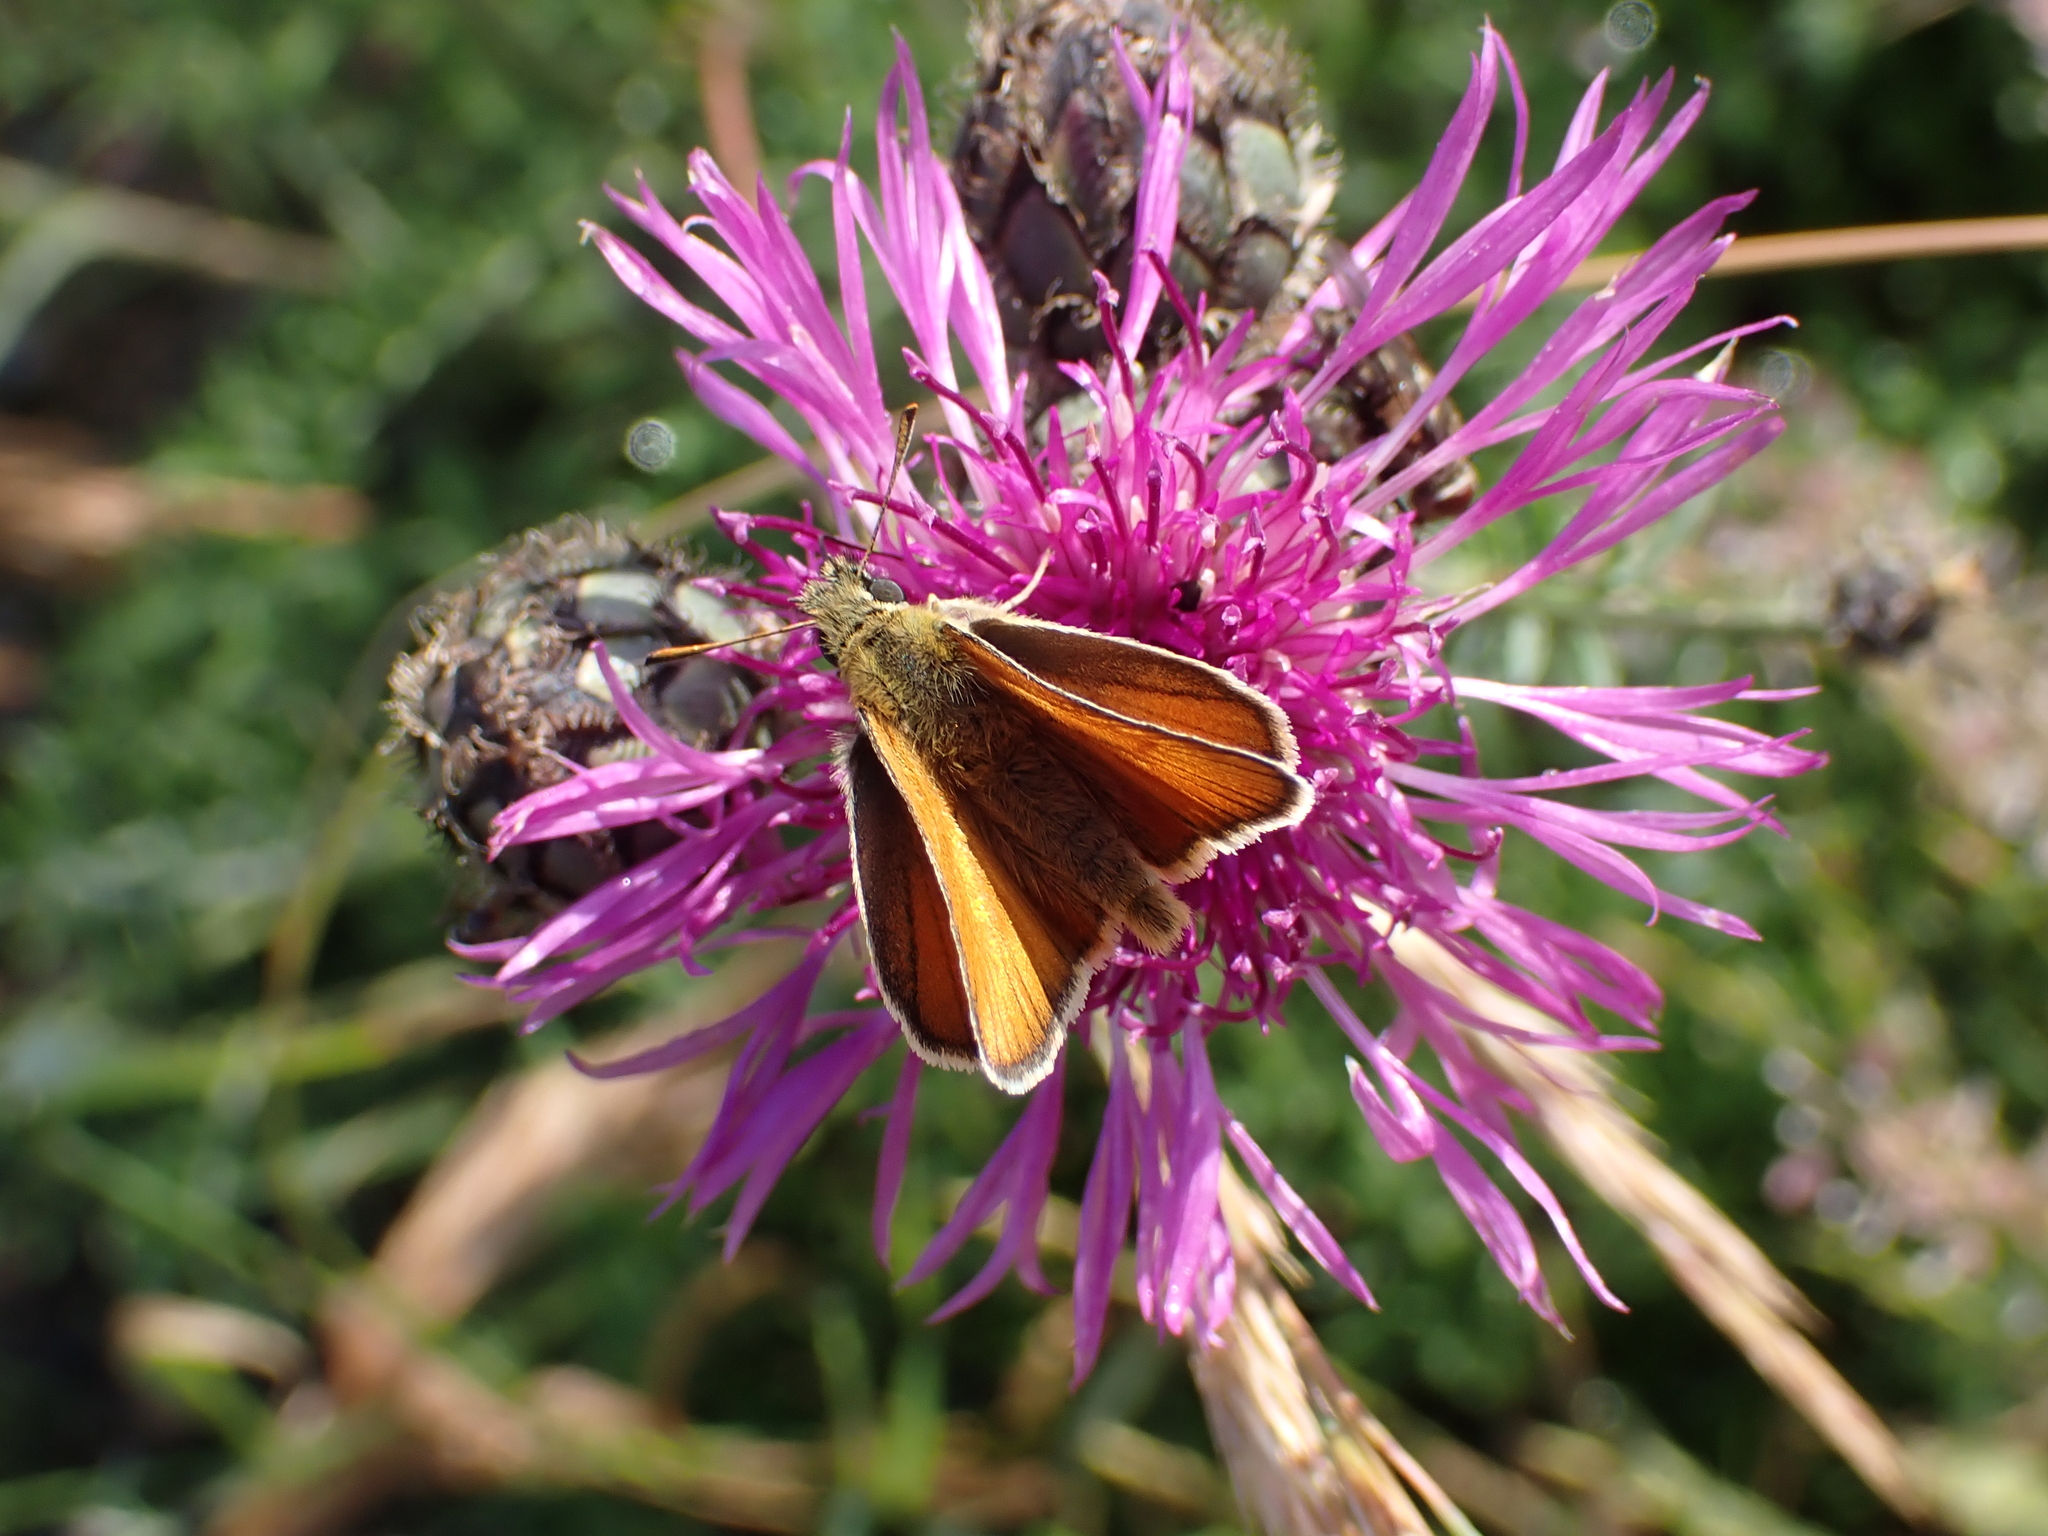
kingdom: Animalia
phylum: Arthropoda
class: Insecta
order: Lepidoptera
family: Hesperiidae
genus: Thymelicus
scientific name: Thymelicus sylvestris
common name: Small skipper
